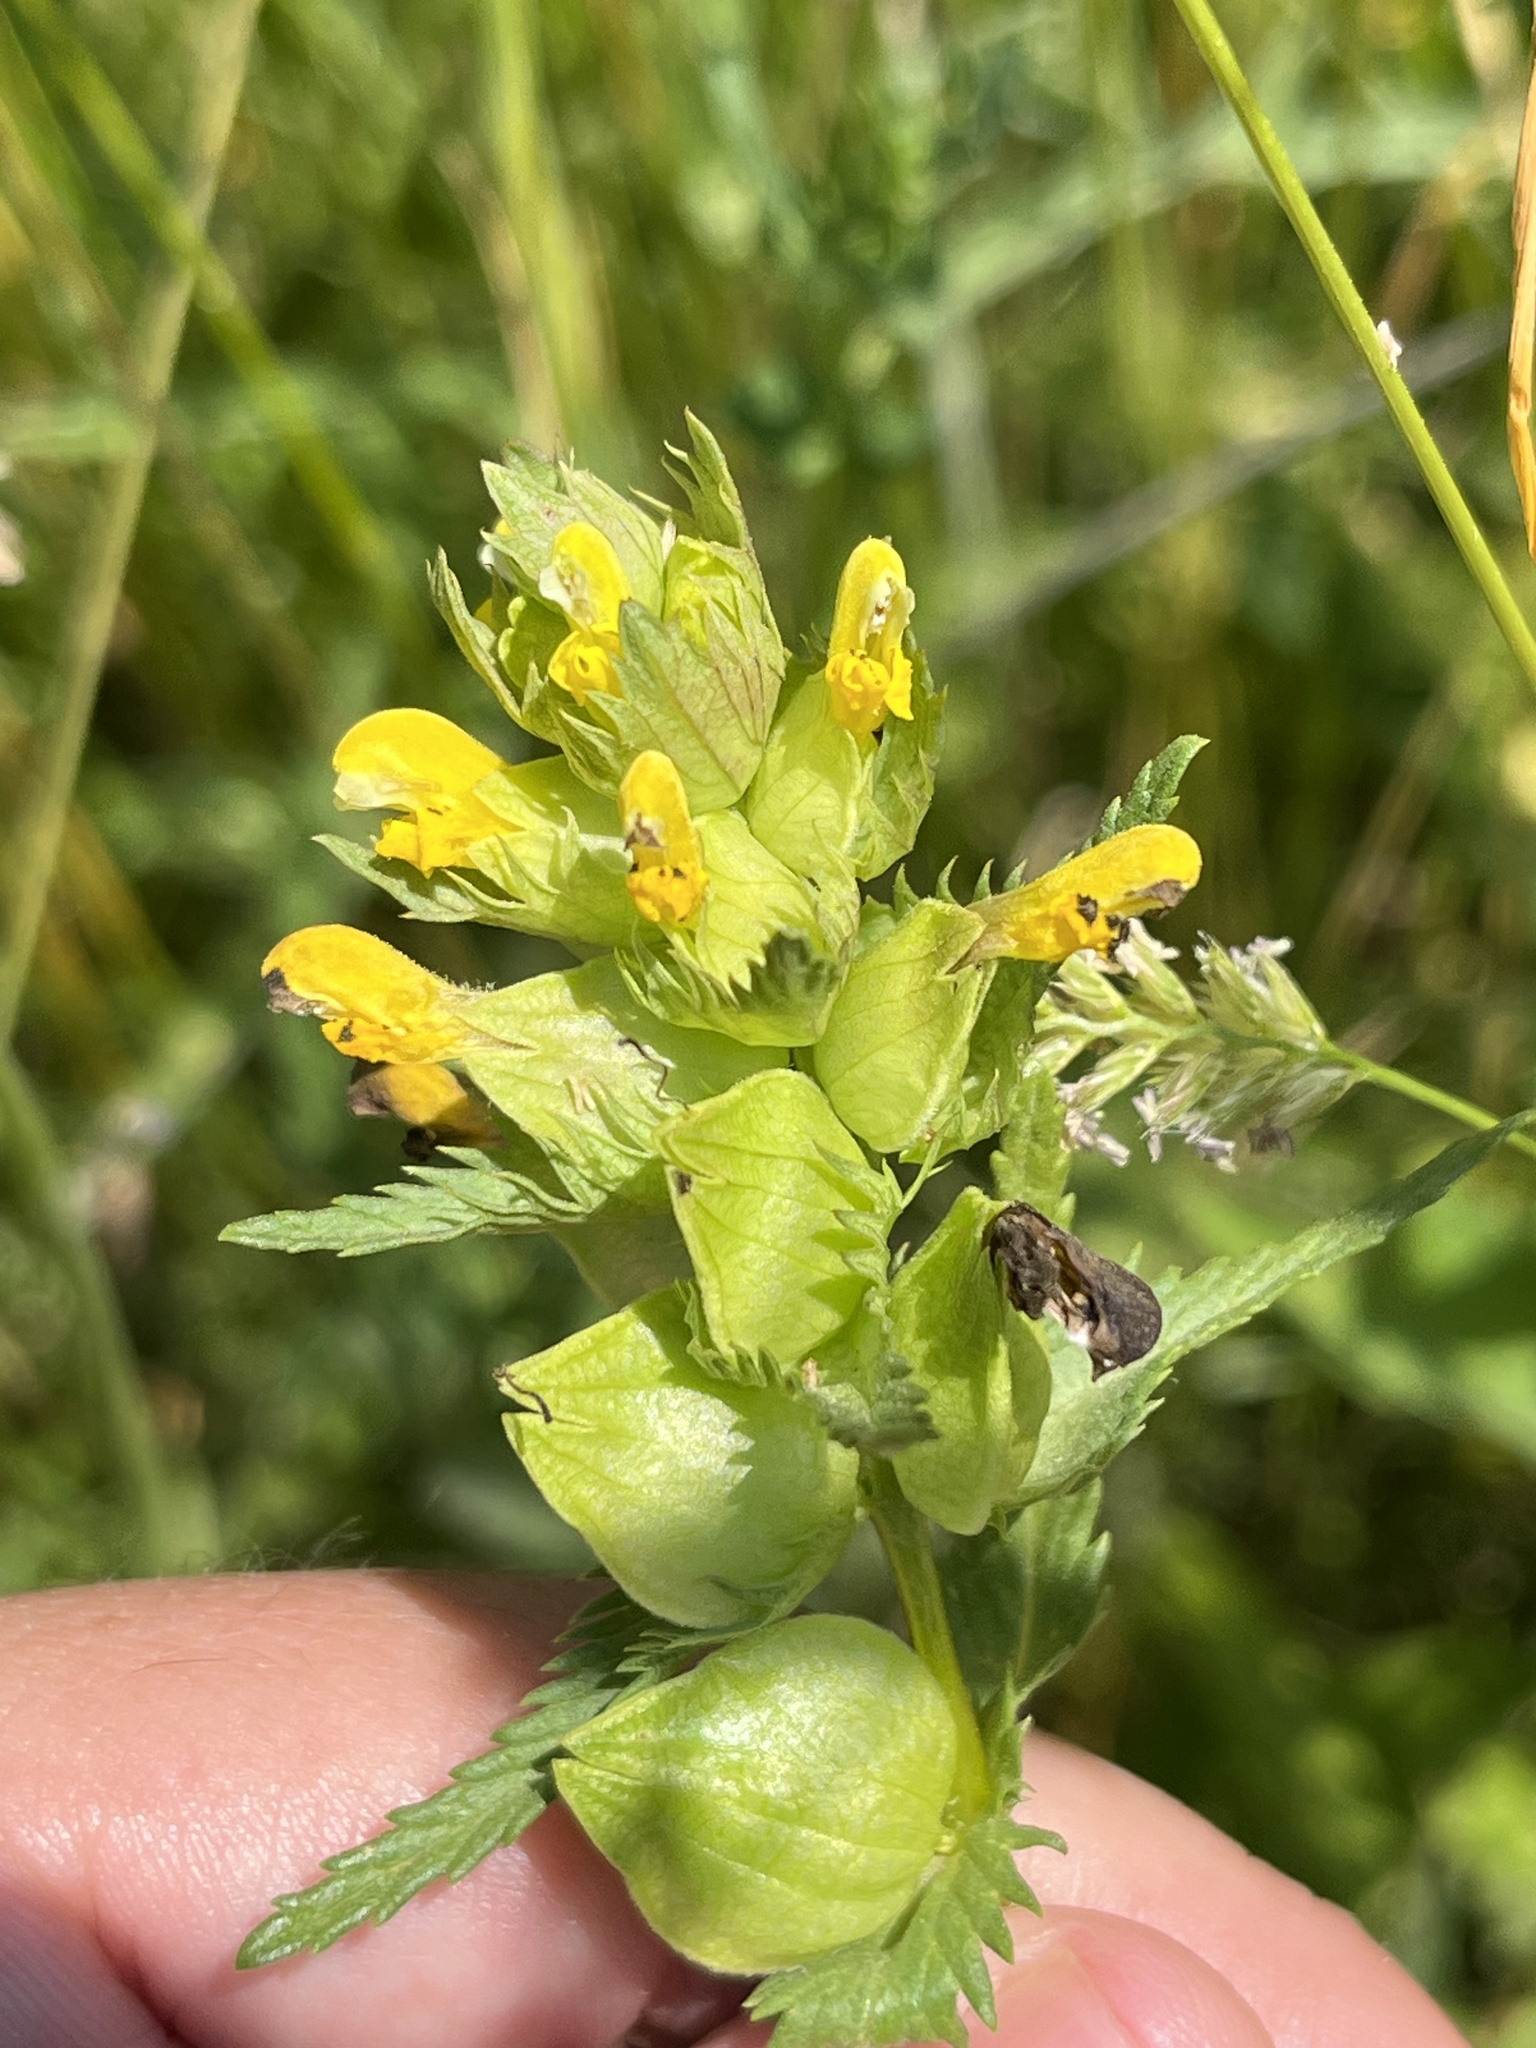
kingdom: Plantae
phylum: Tracheophyta
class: Magnoliopsida
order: Lamiales
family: Orobanchaceae
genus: Rhinanthus
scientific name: Rhinanthus minor
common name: Yellow-rattle
